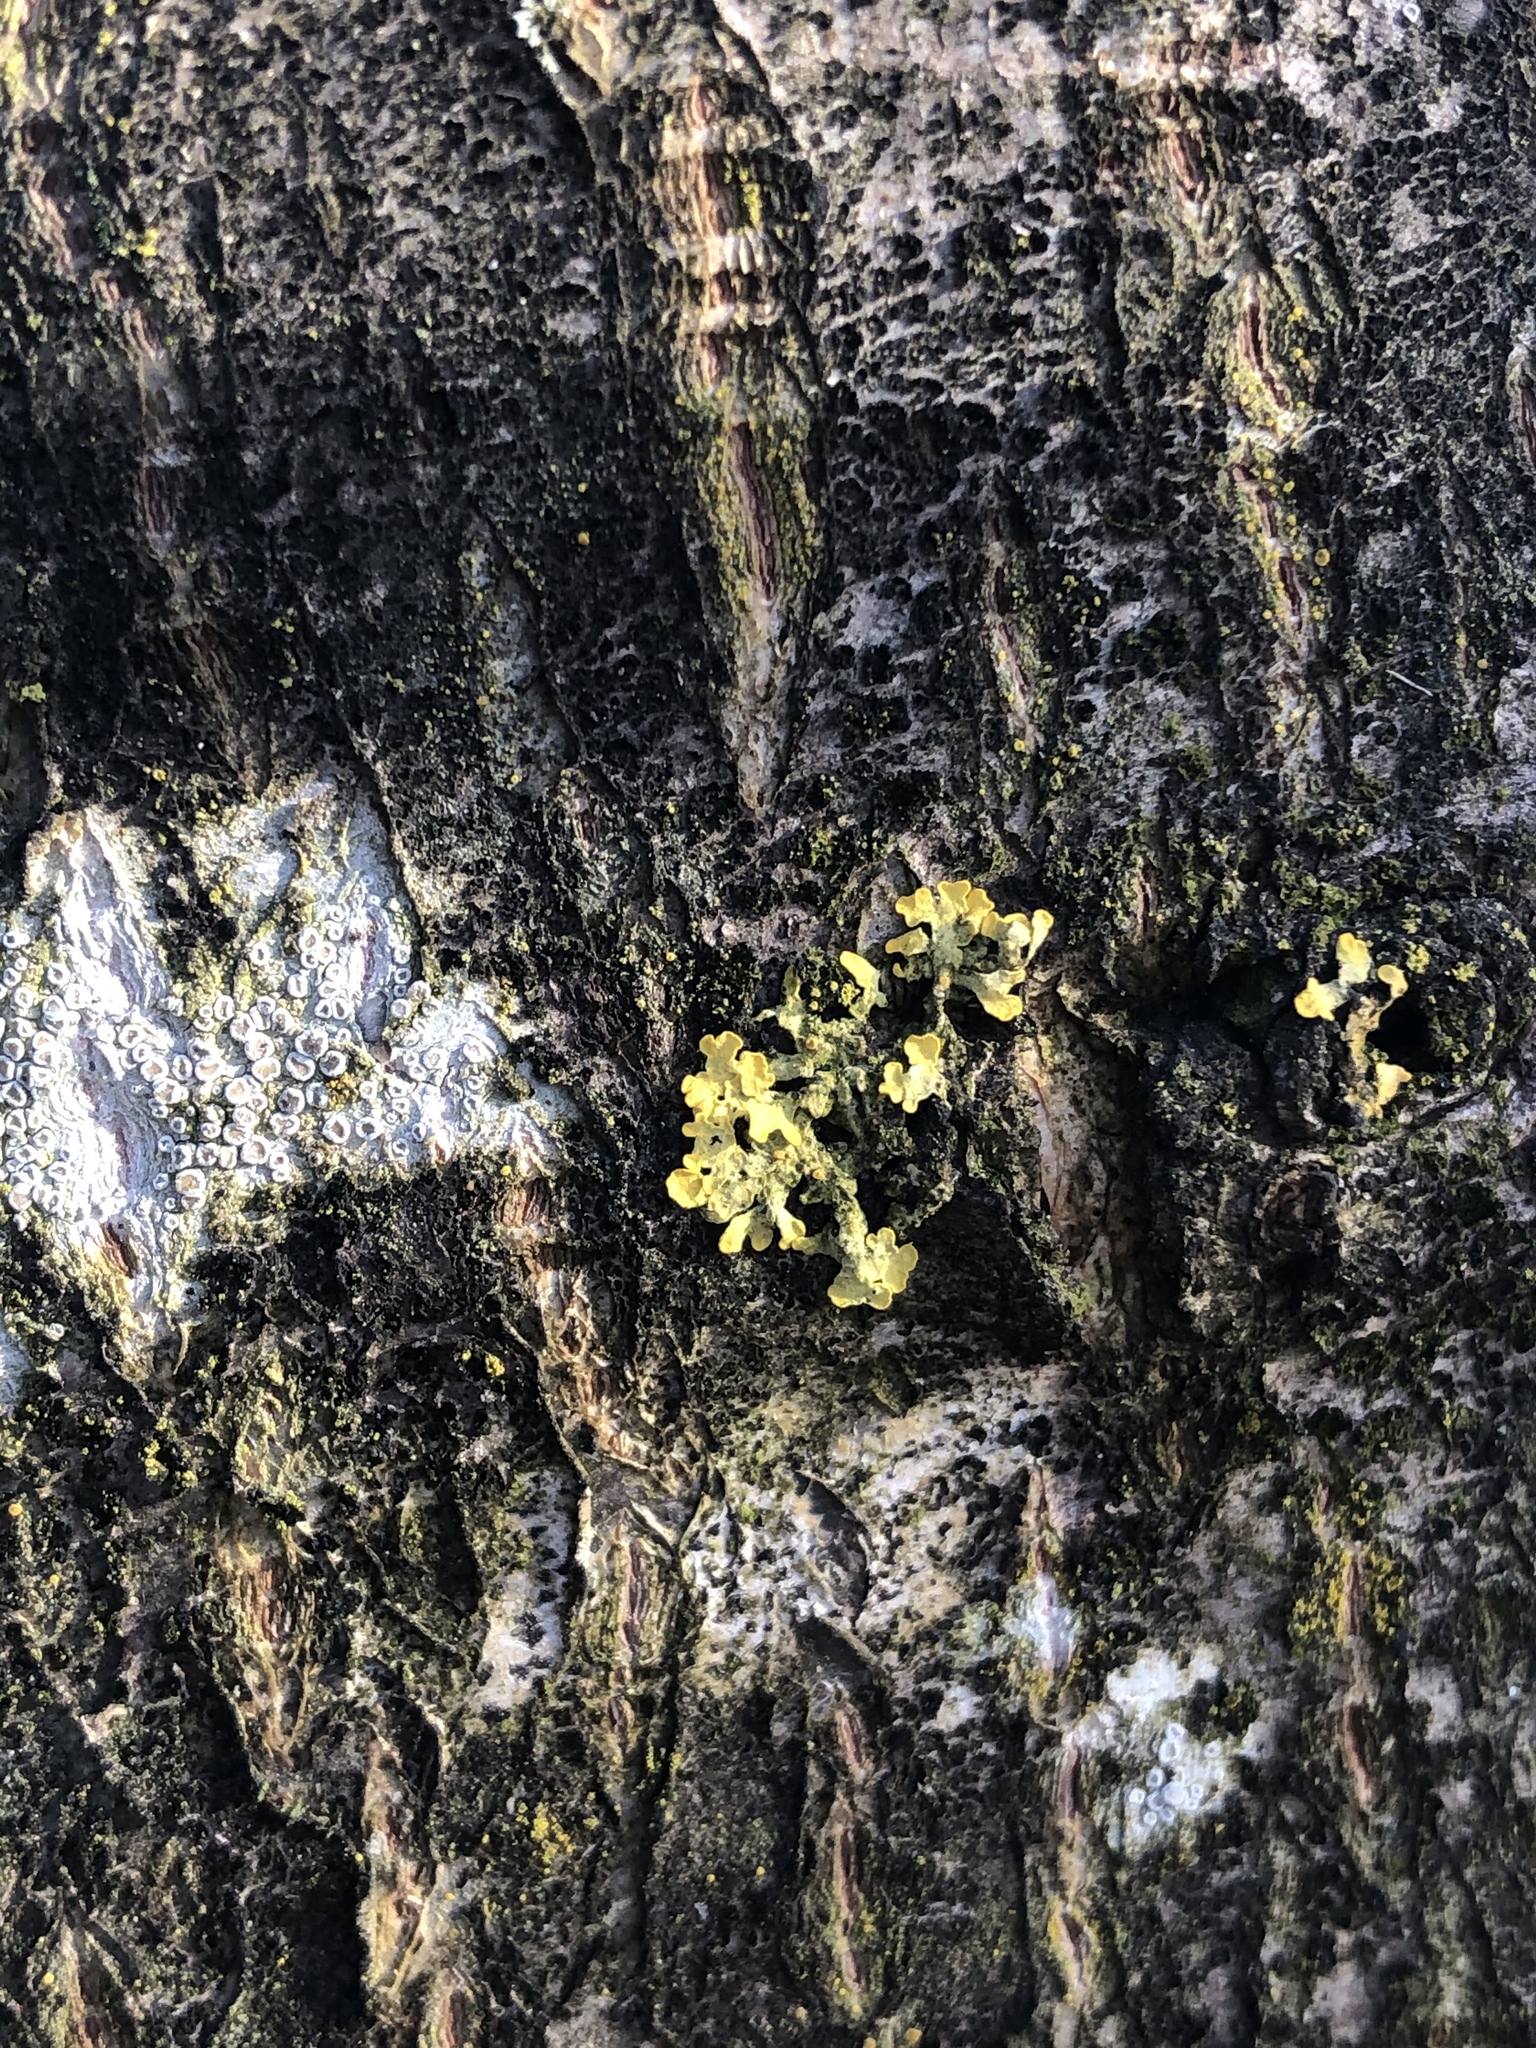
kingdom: Fungi
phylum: Ascomycota
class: Lecanoromycetes
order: Lecanorales
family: Parmeliaceae
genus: Vulpicida
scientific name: Vulpicida pinastri
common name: Powdered sunshine lichen
